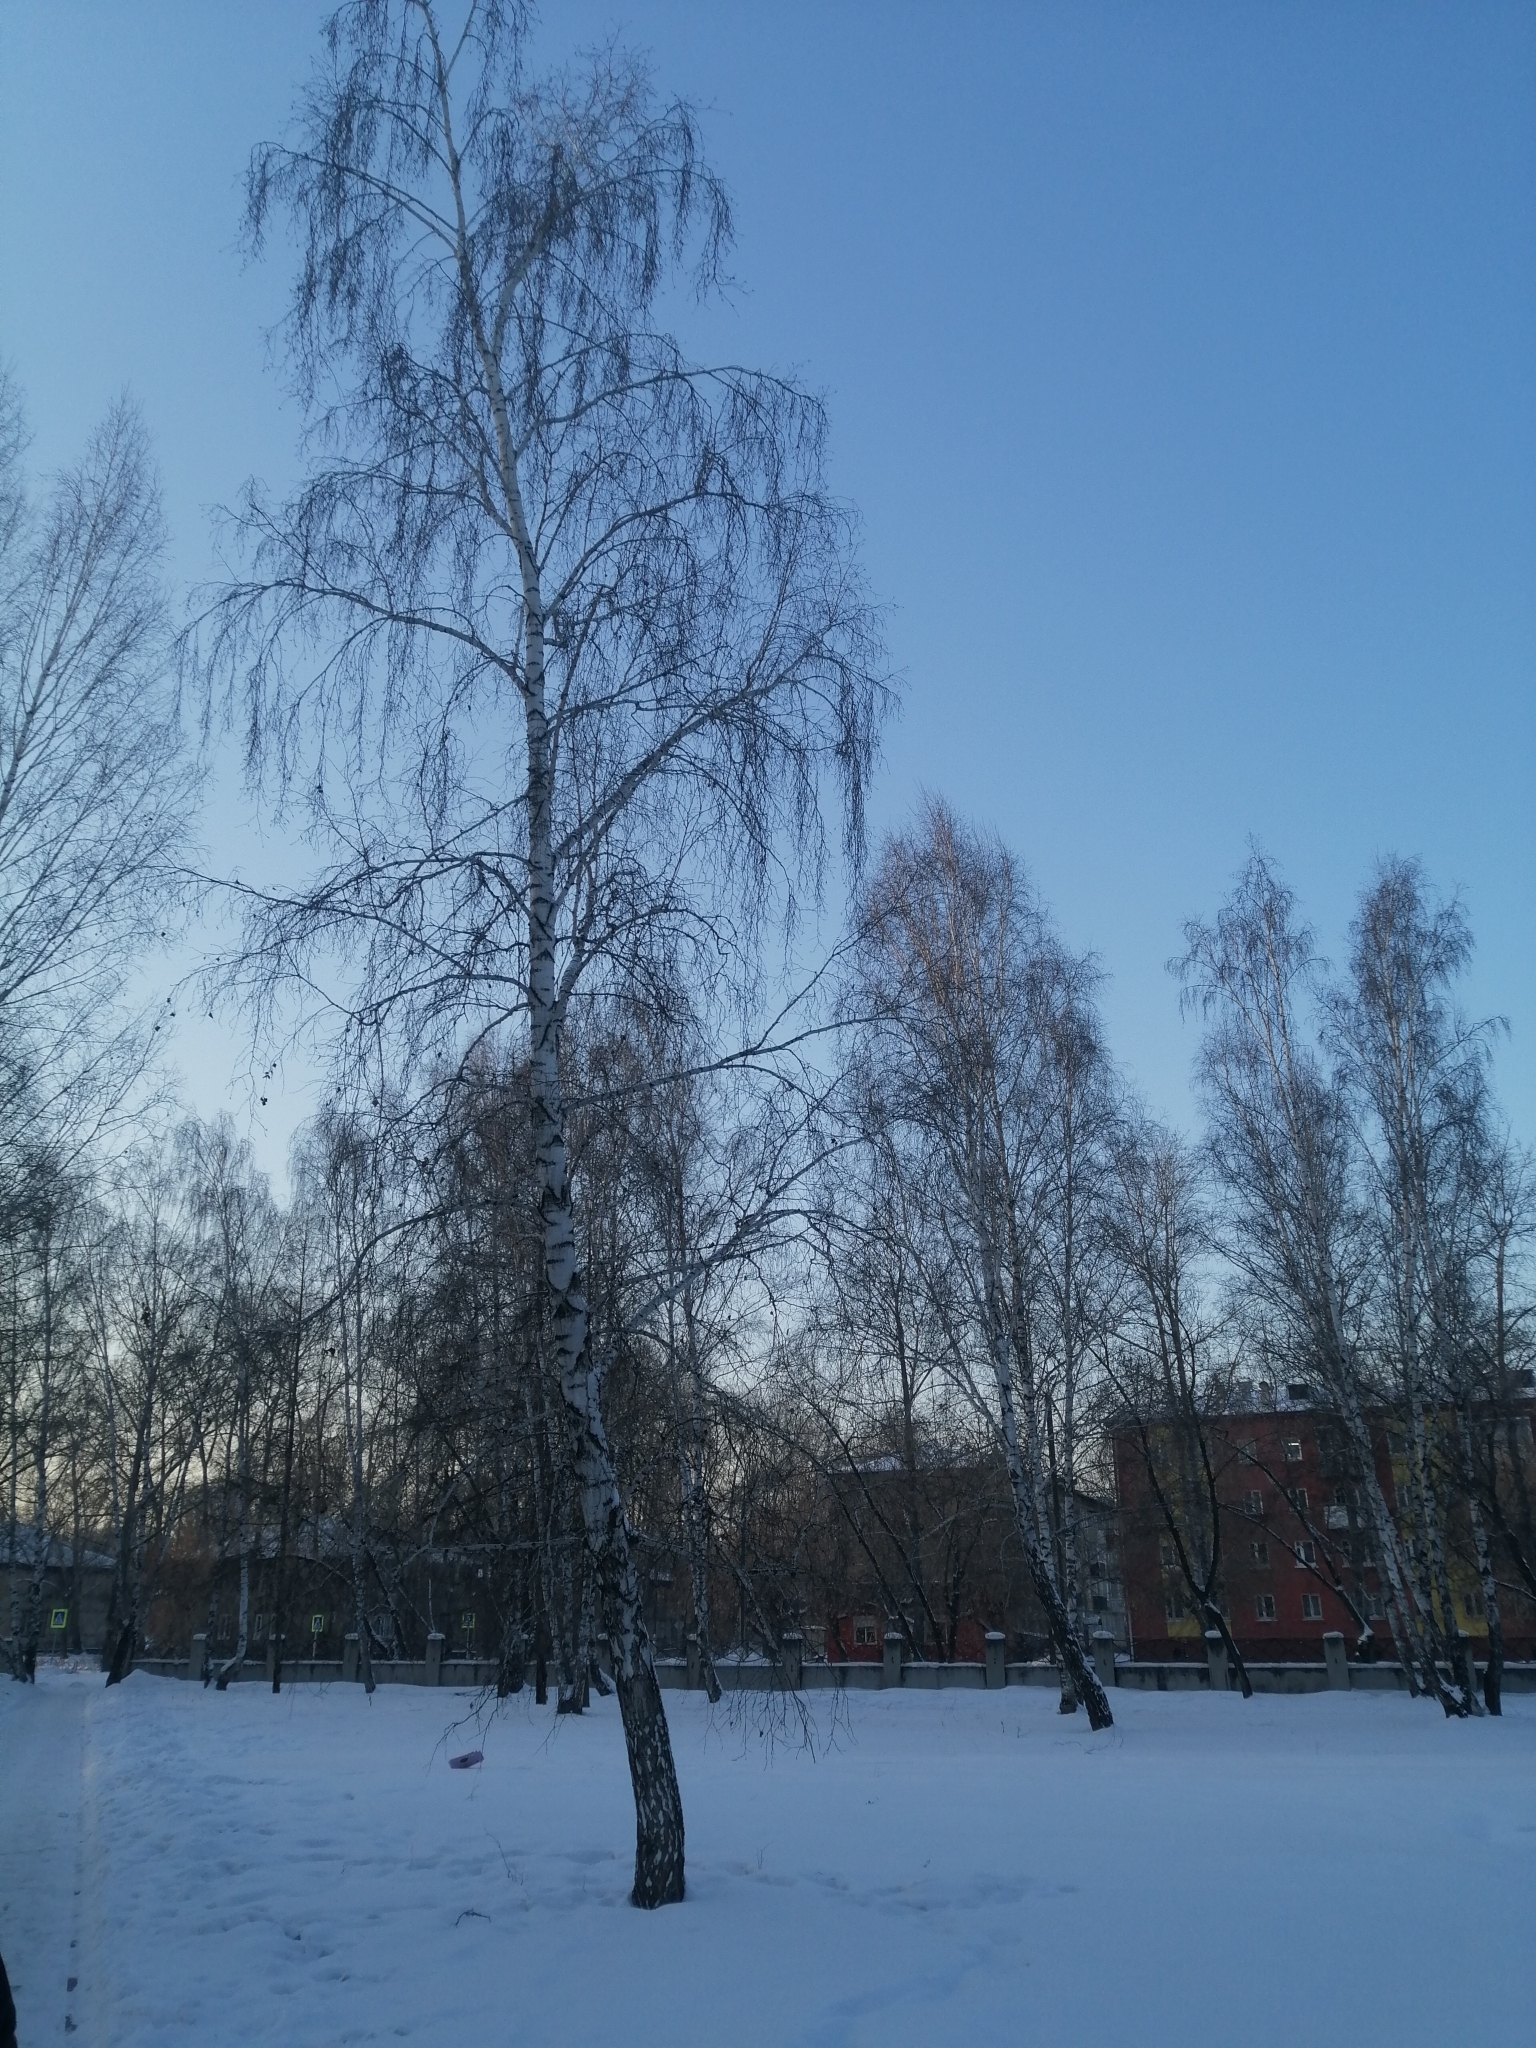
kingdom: Plantae
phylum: Tracheophyta
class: Magnoliopsida
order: Fagales
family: Betulaceae
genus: Betula
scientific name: Betula pendula
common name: Silver birch
